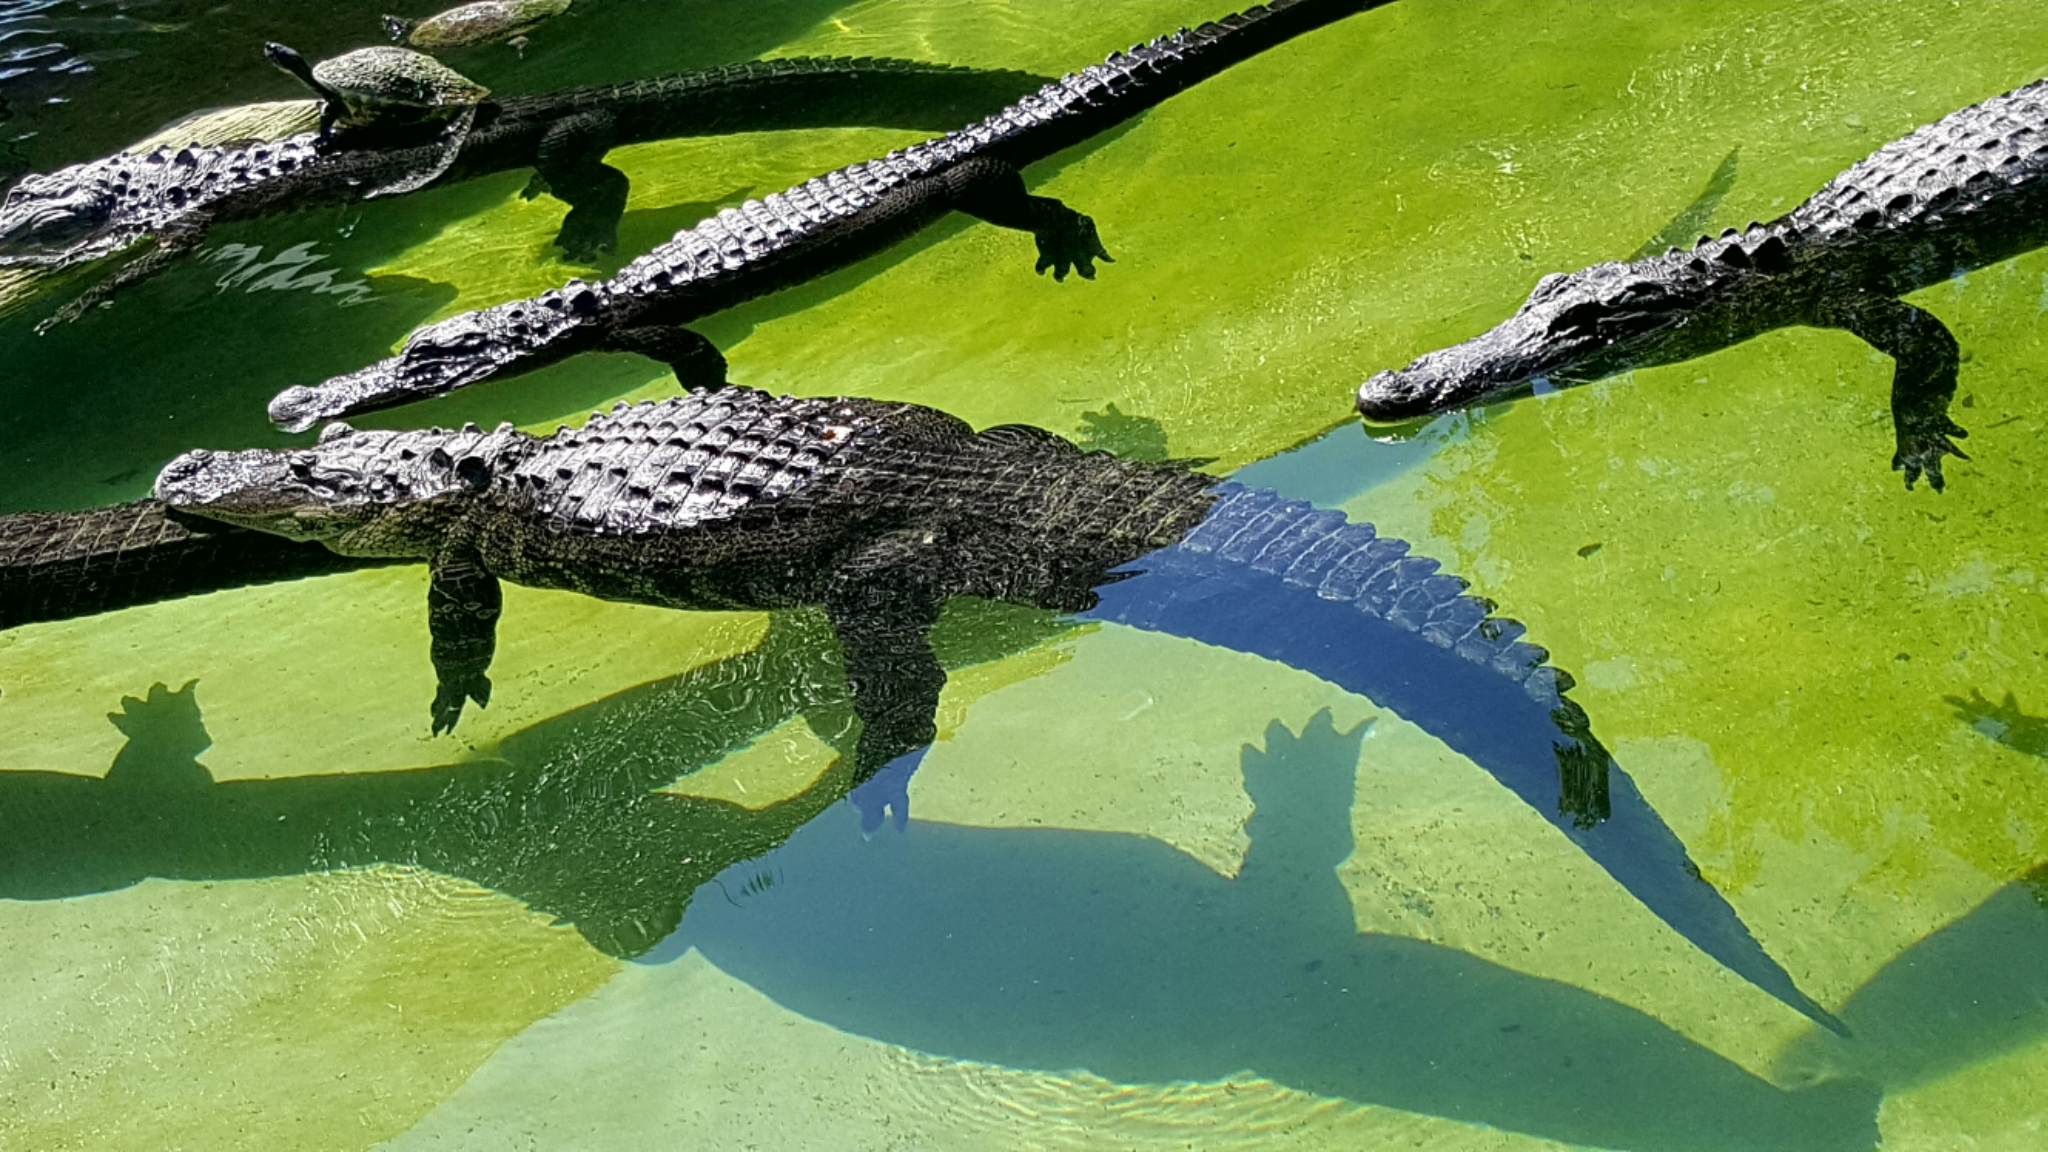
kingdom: Animalia
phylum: Chordata
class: Crocodylia
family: Alligatoridae
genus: Alligator
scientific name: Alligator mississippiensis
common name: American alligator
